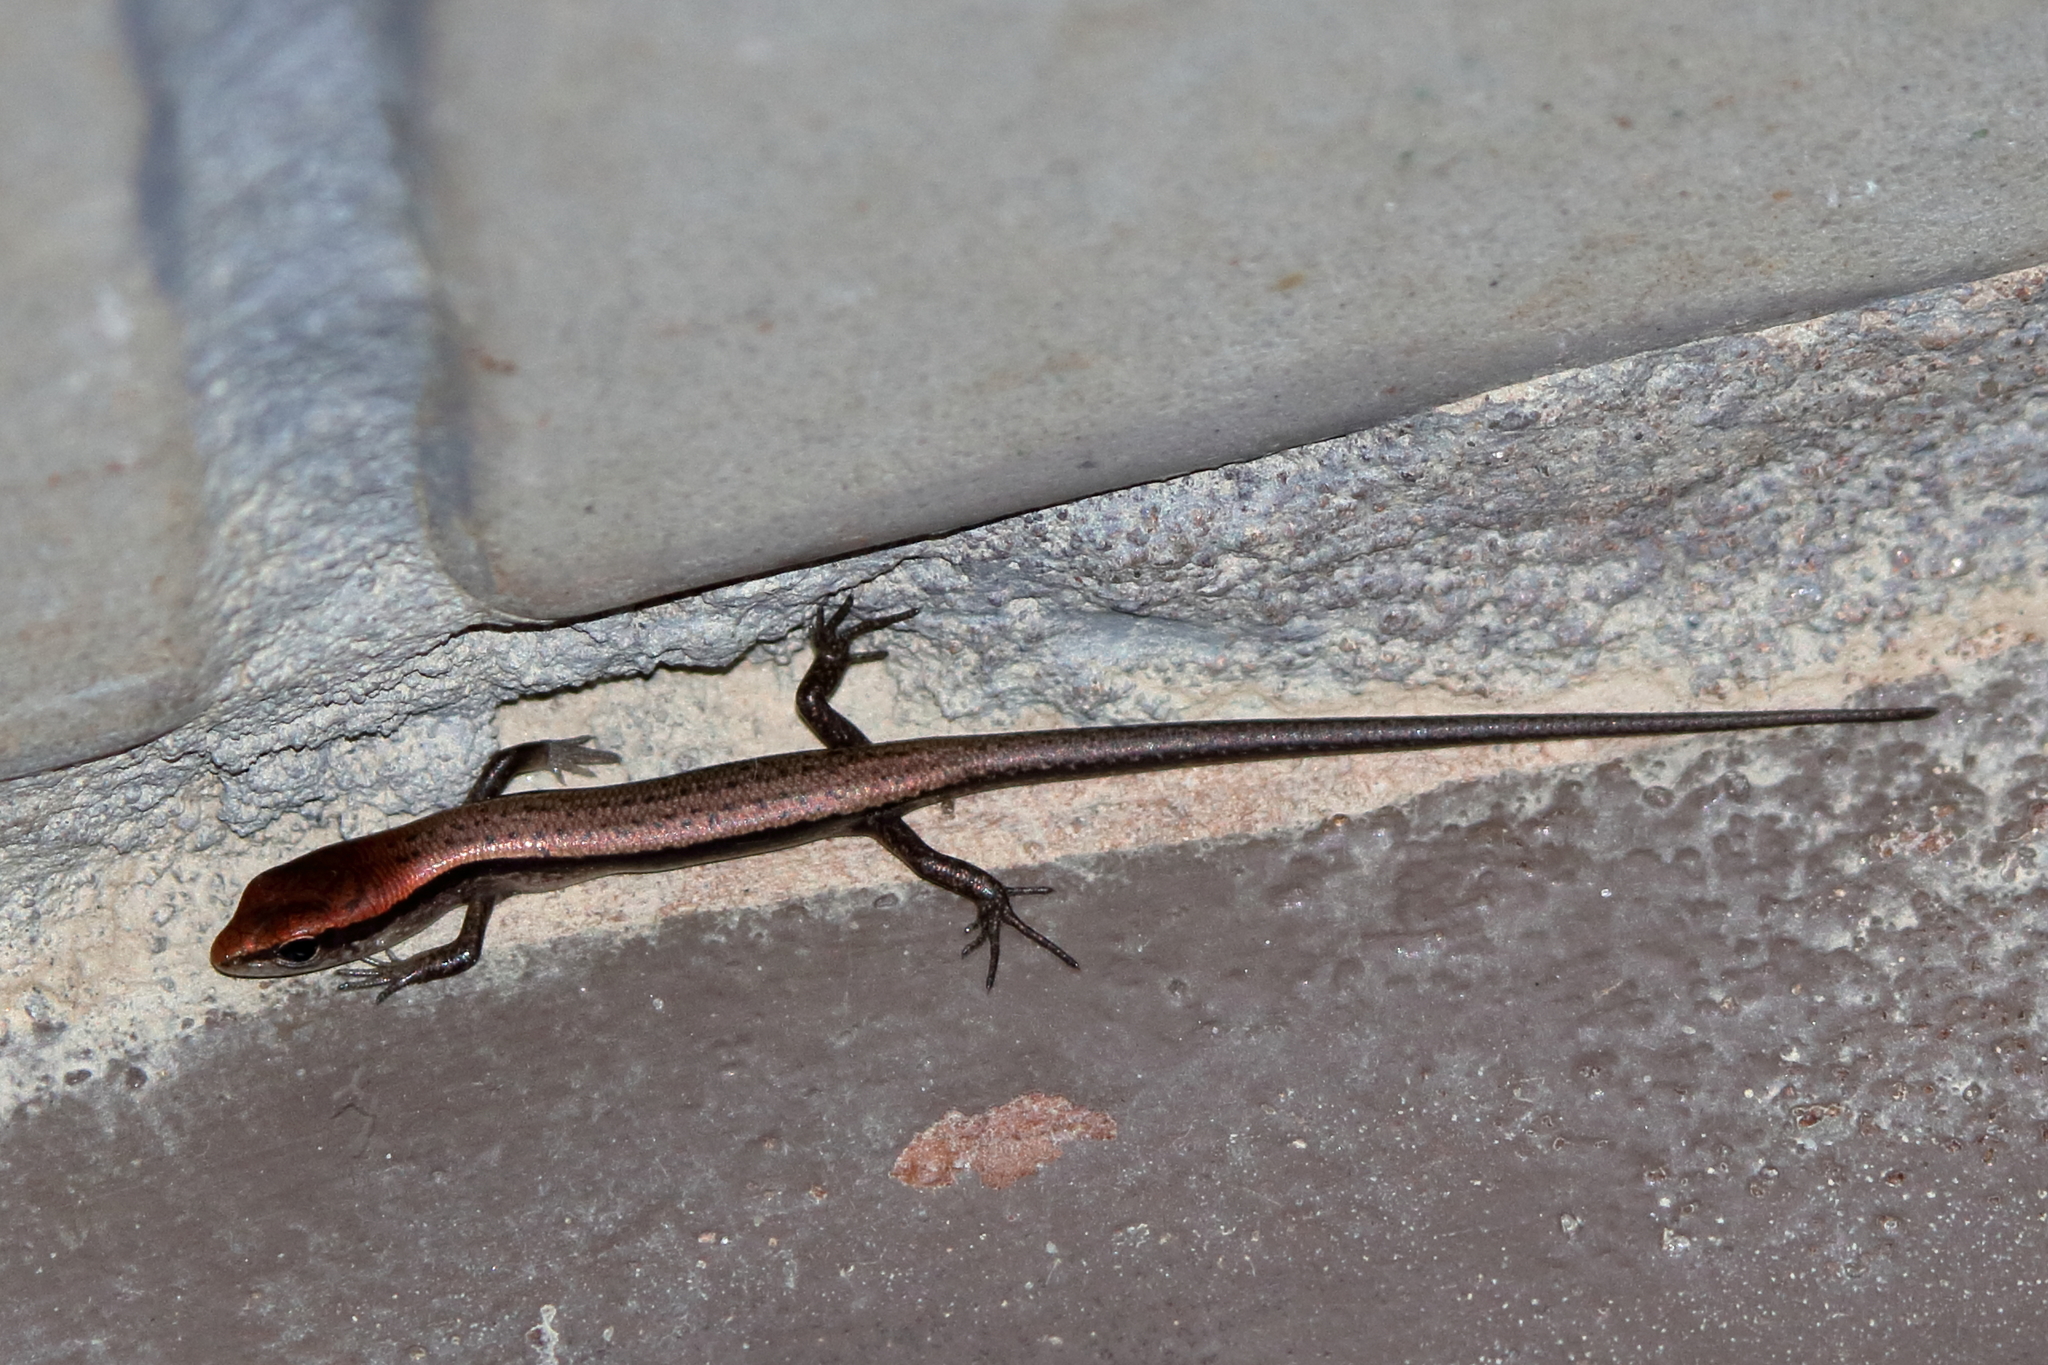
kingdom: Animalia
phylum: Chordata
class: Squamata
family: Scincidae
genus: Scincella
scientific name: Scincella lateralis
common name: Ground skink
